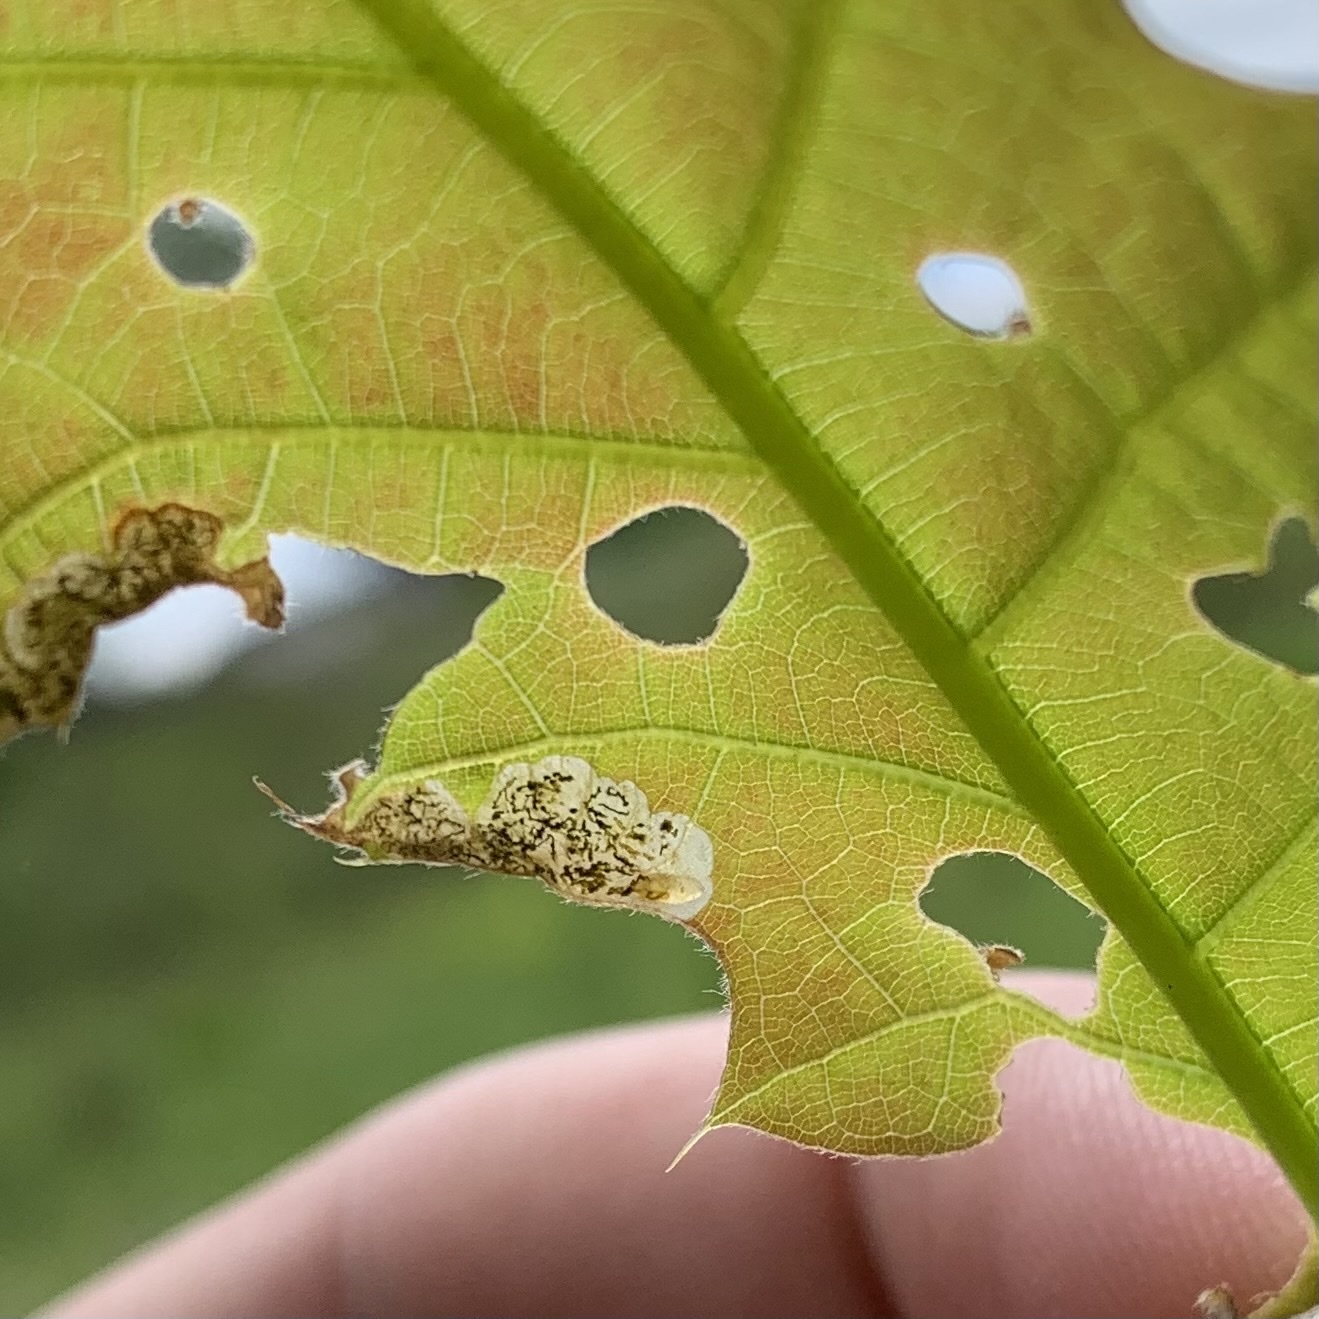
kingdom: Animalia
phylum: Arthropoda
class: Insecta
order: Diptera
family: Agromyzidae
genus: Japanagromyza
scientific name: Japanagromyza viridula
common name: Oak shothole leafminer
